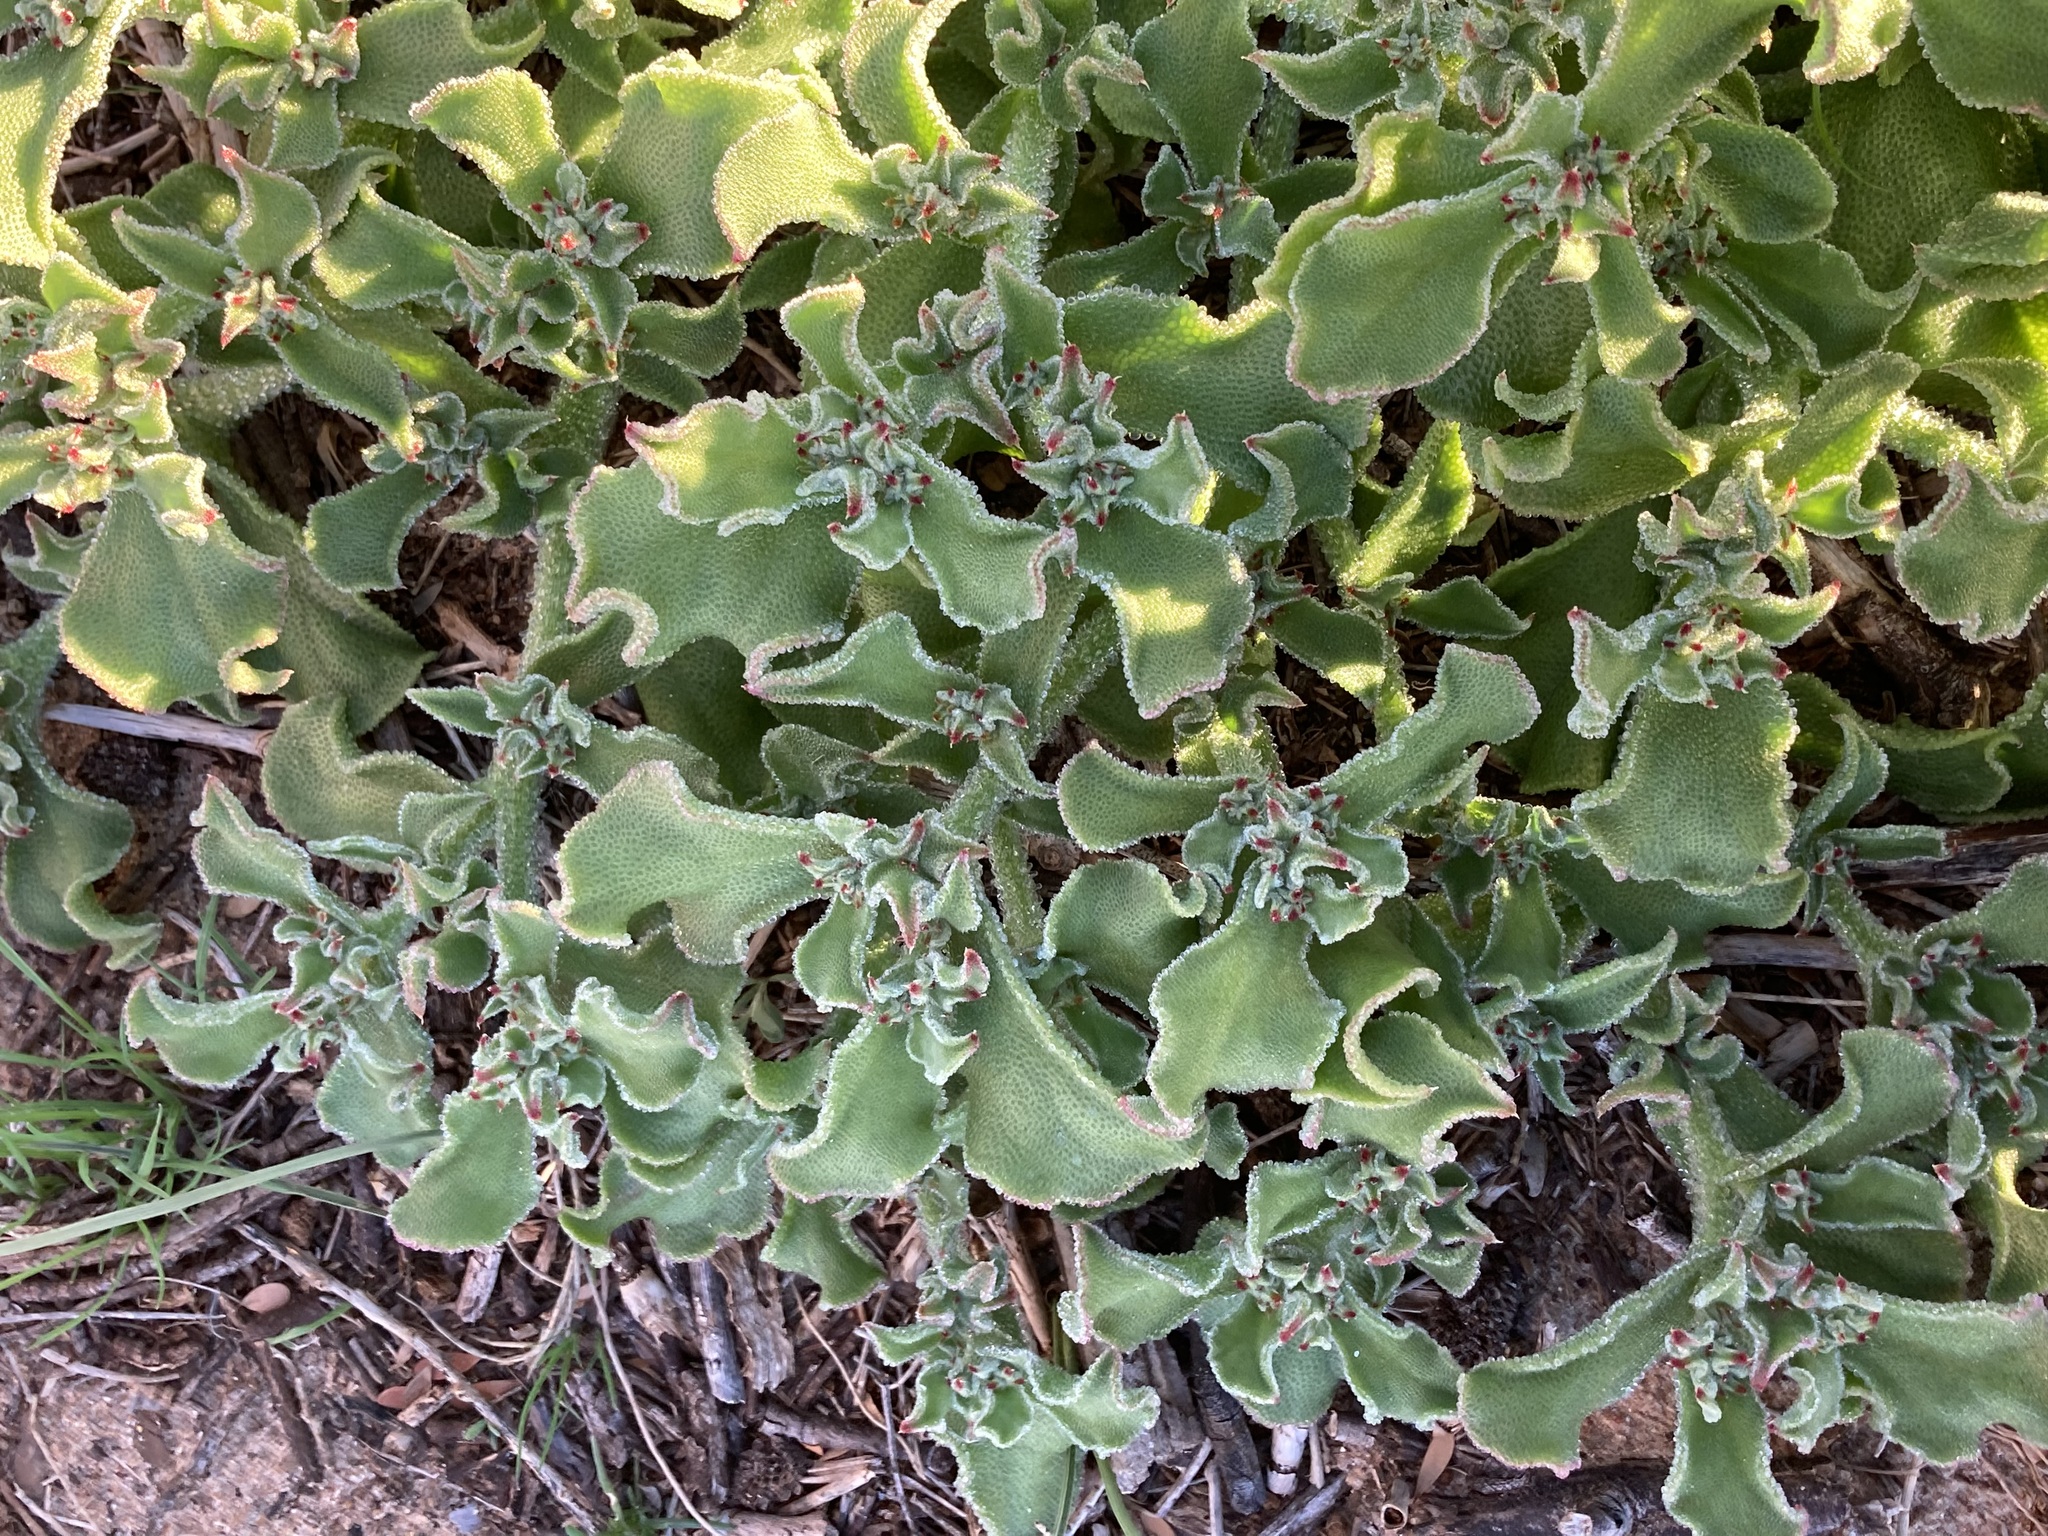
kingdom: Plantae
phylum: Tracheophyta
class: Magnoliopsida
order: Caryophyllales
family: Aizoaceae
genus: Mesembryanthemum
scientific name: Mesembryanthemum crystallinum
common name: Common iceplant
